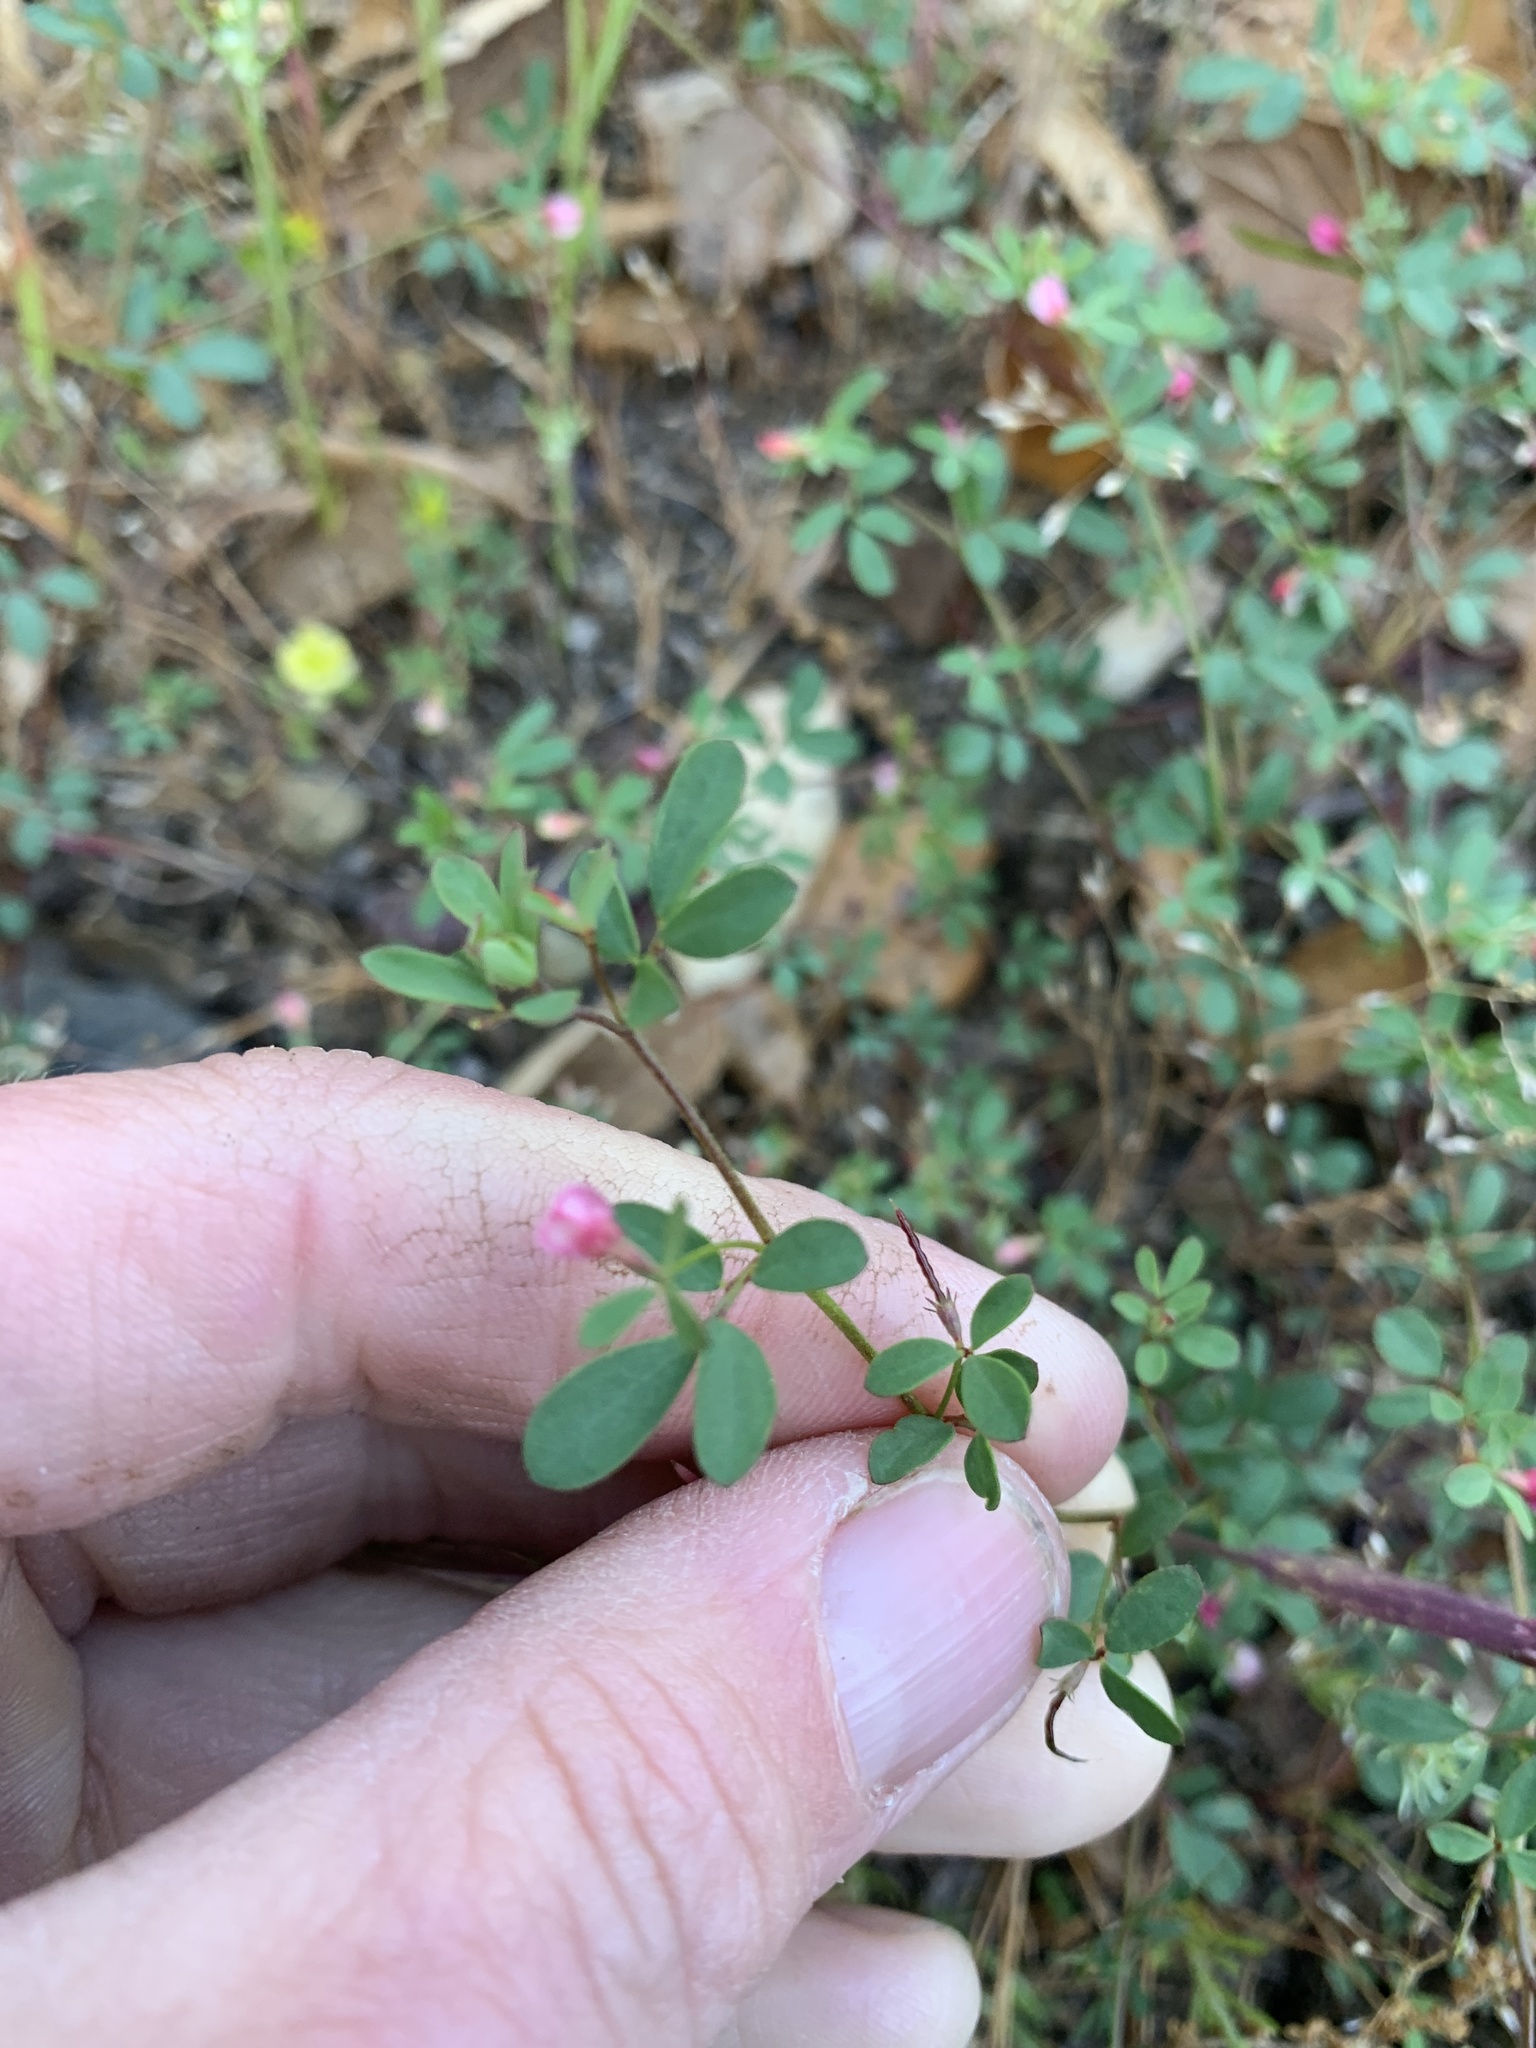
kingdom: Plantae
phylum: Tracheophyta
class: Magnoliopsida
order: Fabales
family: Fabaceae
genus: Acmispon
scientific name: Acmispon parviflorus
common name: Desert deer-vetch
